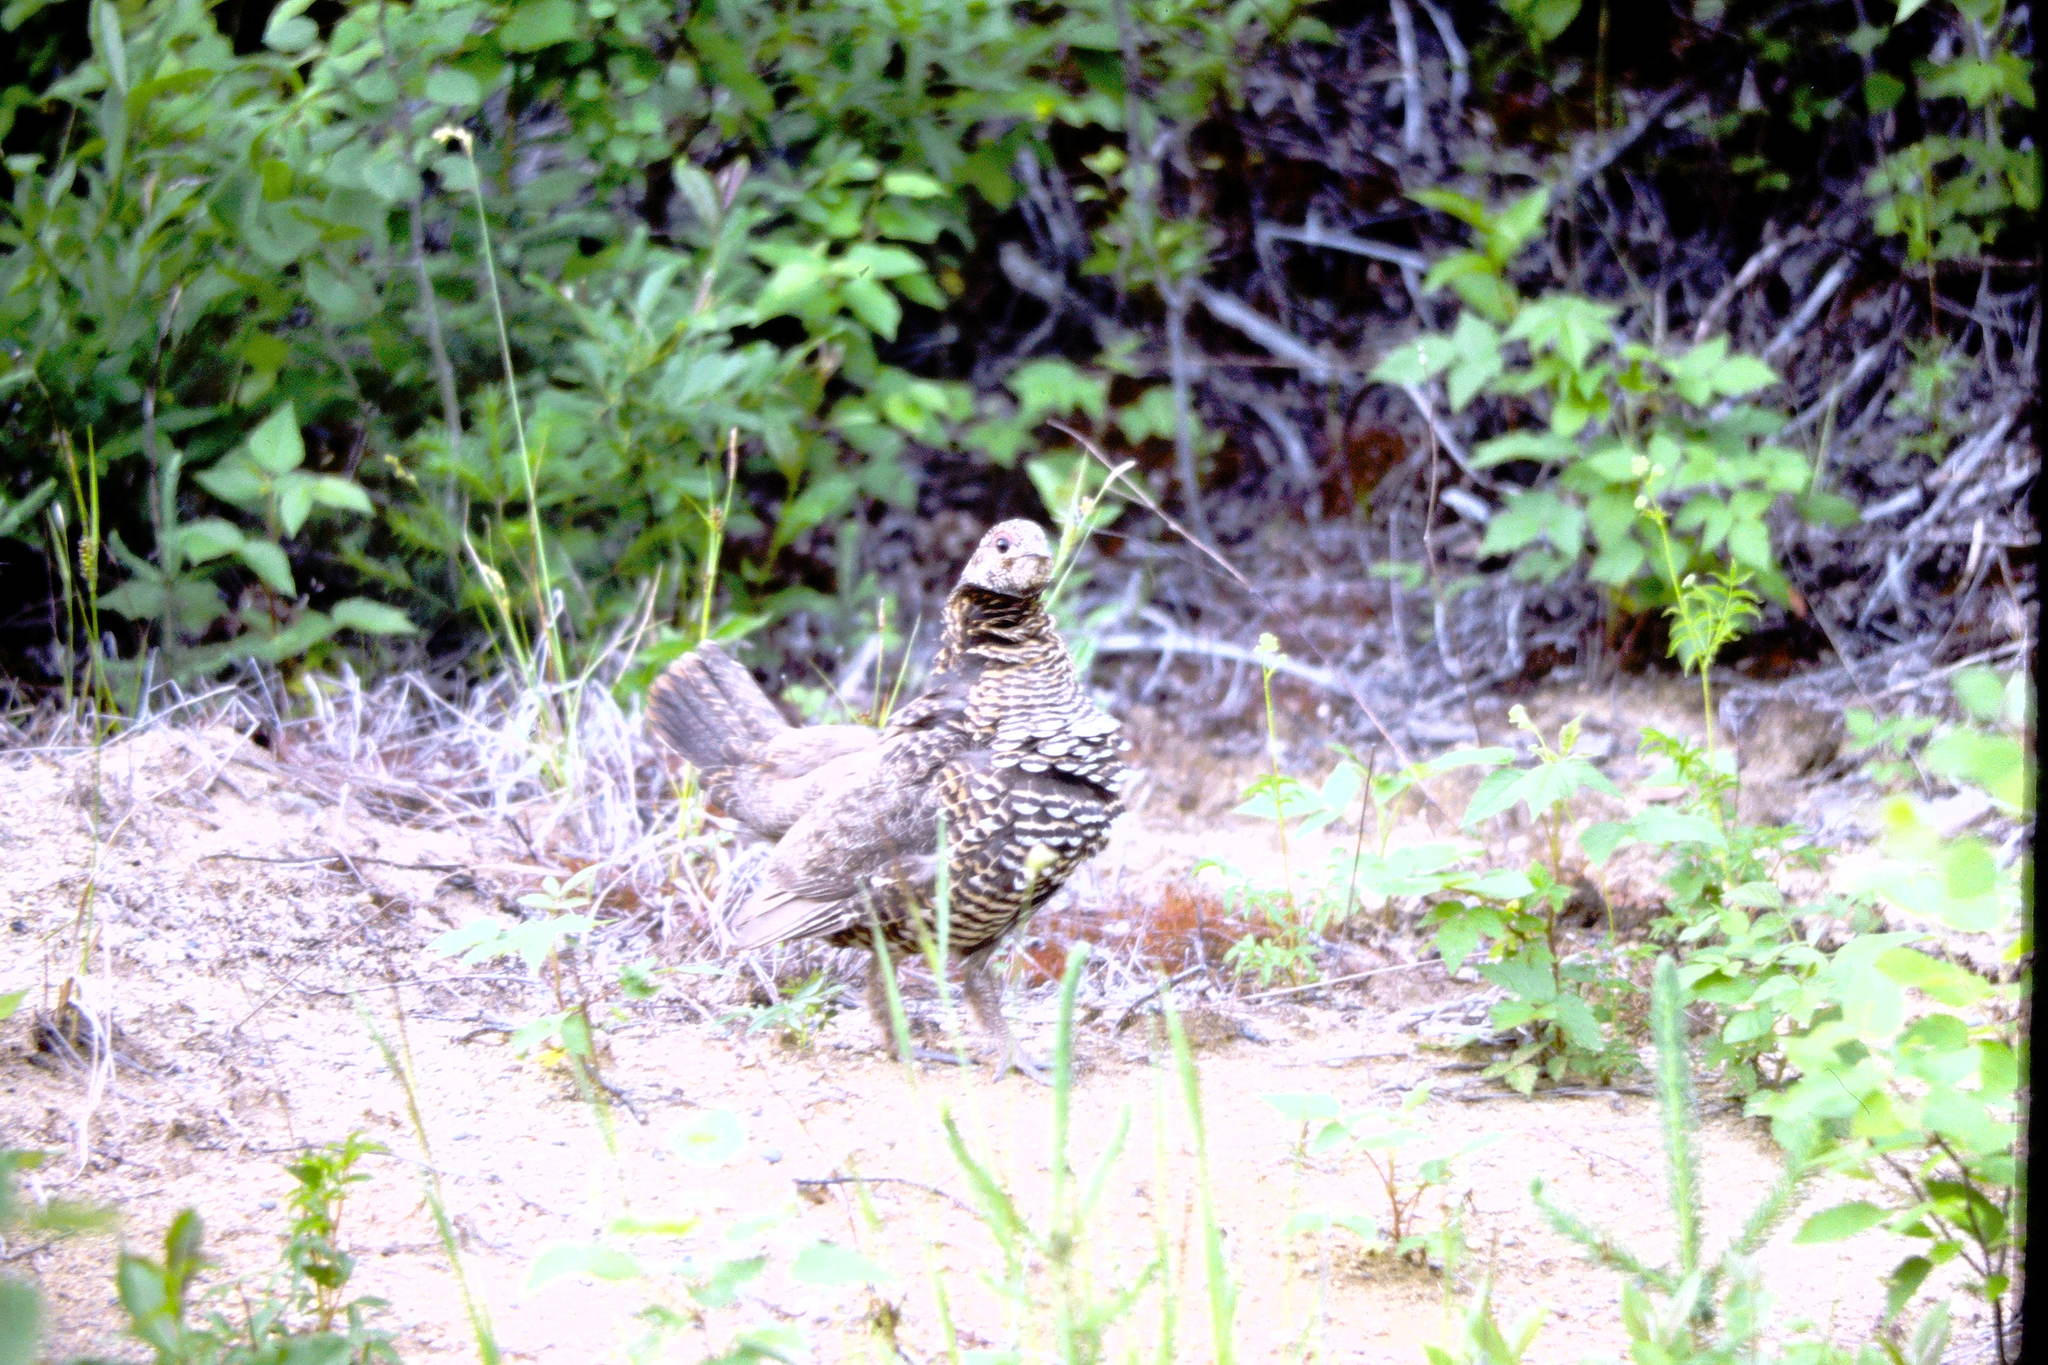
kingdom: Animalia
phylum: Chordata
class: Aves
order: Galliformes
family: Phasianidae
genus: Canachites
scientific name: Canachites canadensis
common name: Spruce grouse
